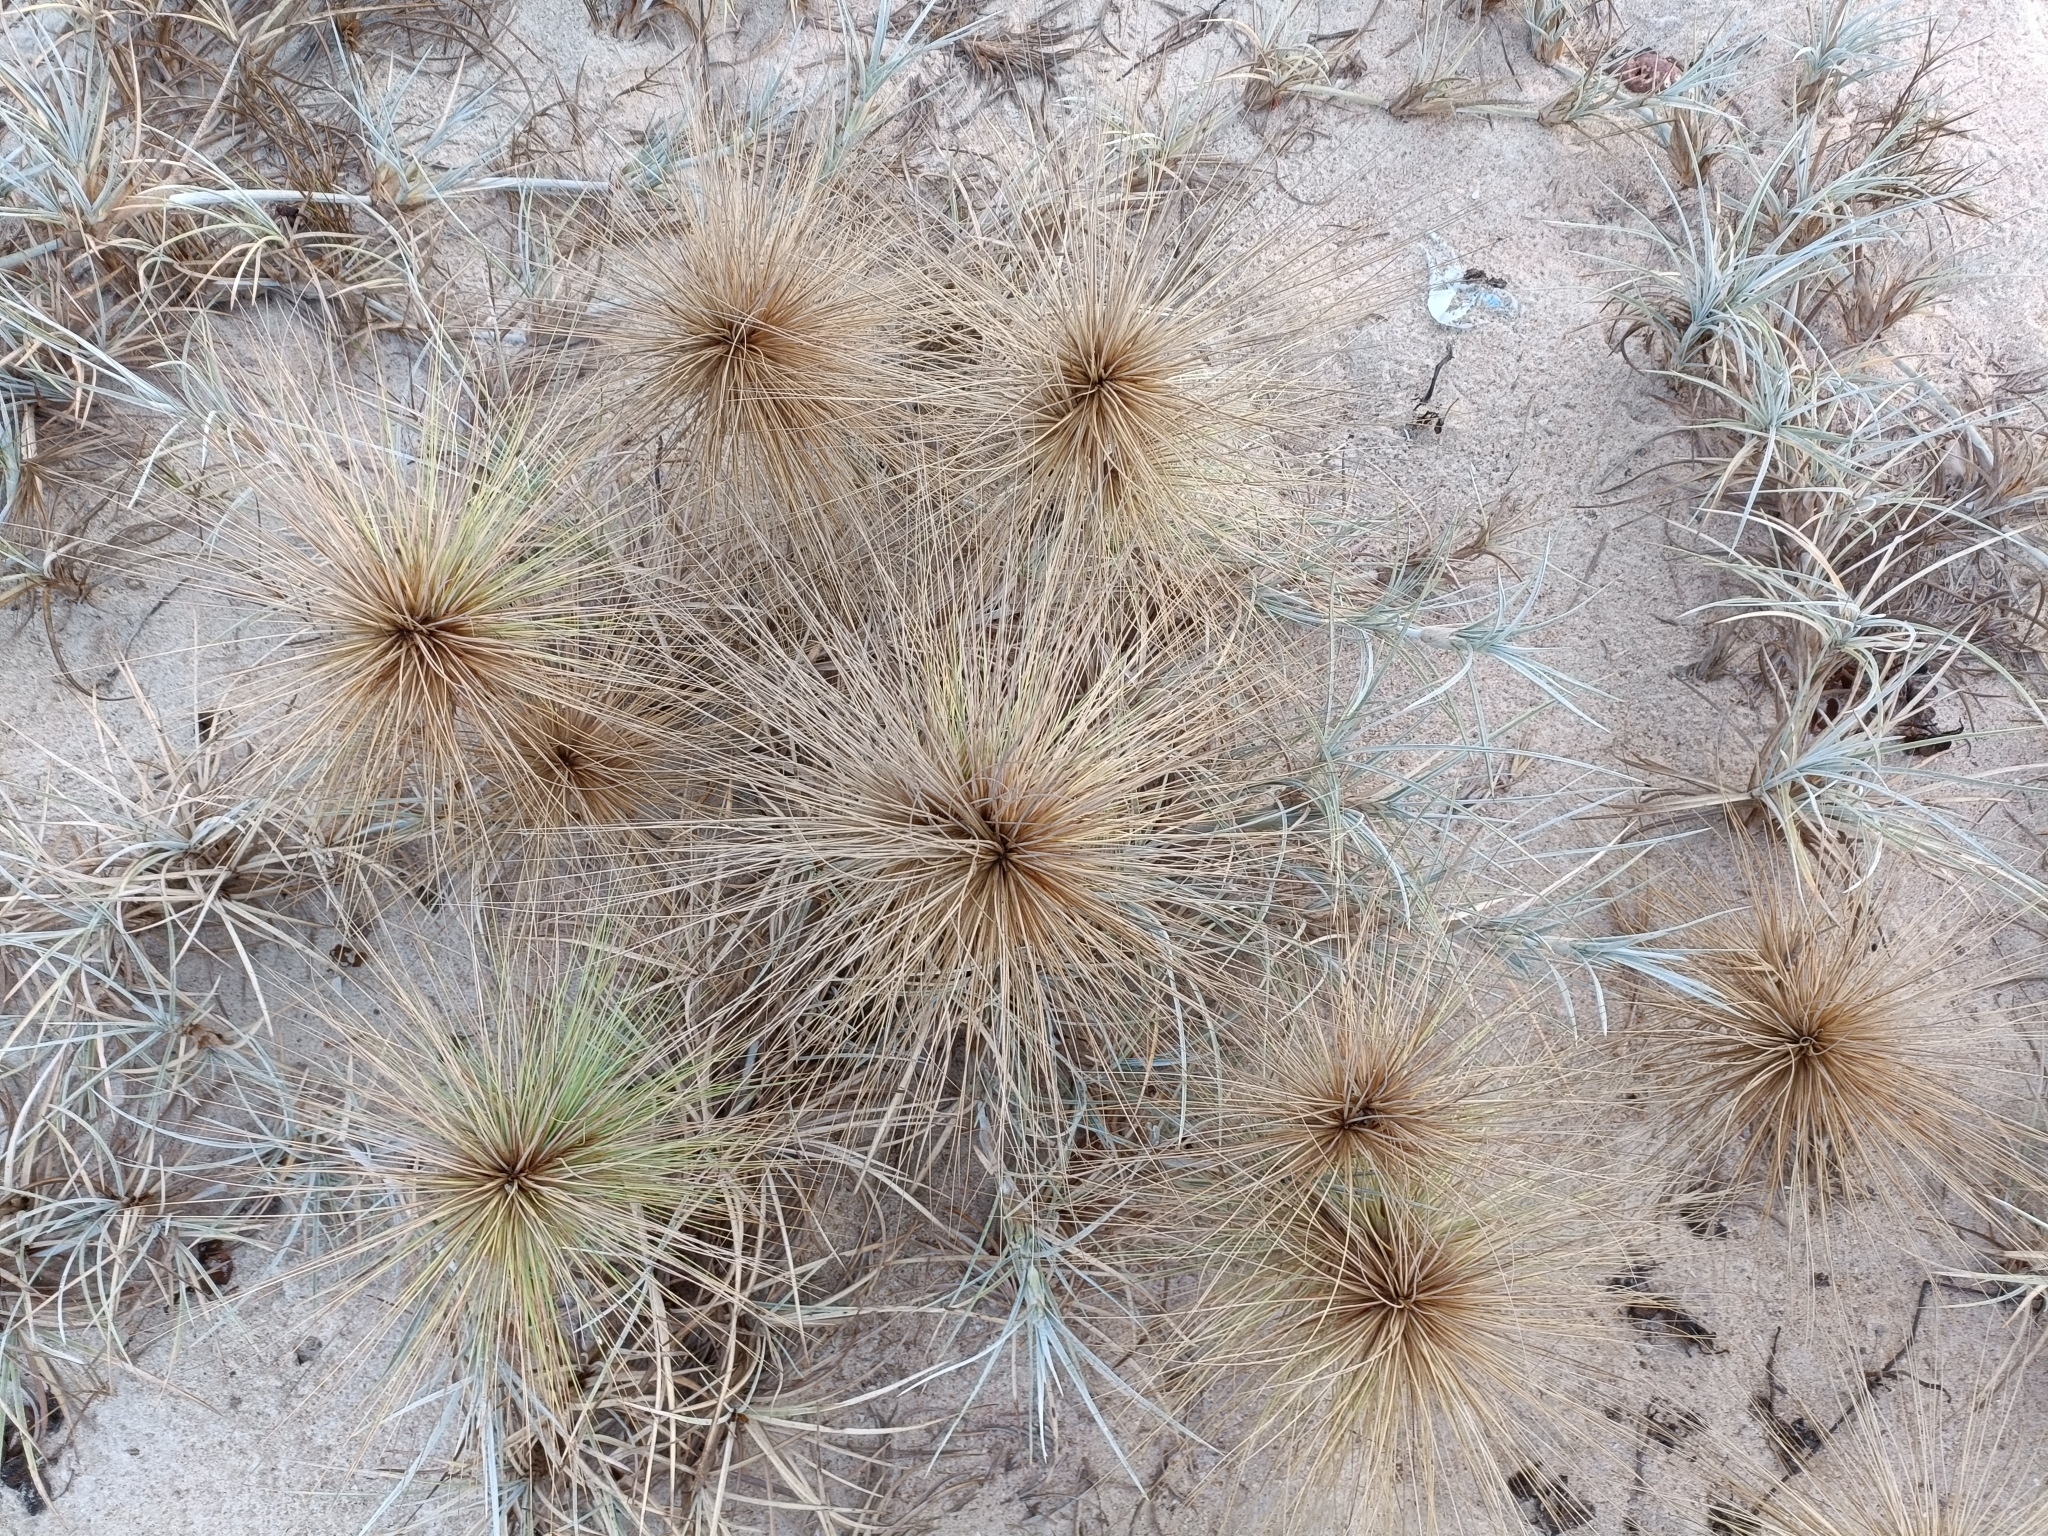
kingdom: Plantae
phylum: Tracheophyta
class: Liliopsida
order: Poales
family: Poaceae
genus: Spinifex
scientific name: Spinifex littoreus
